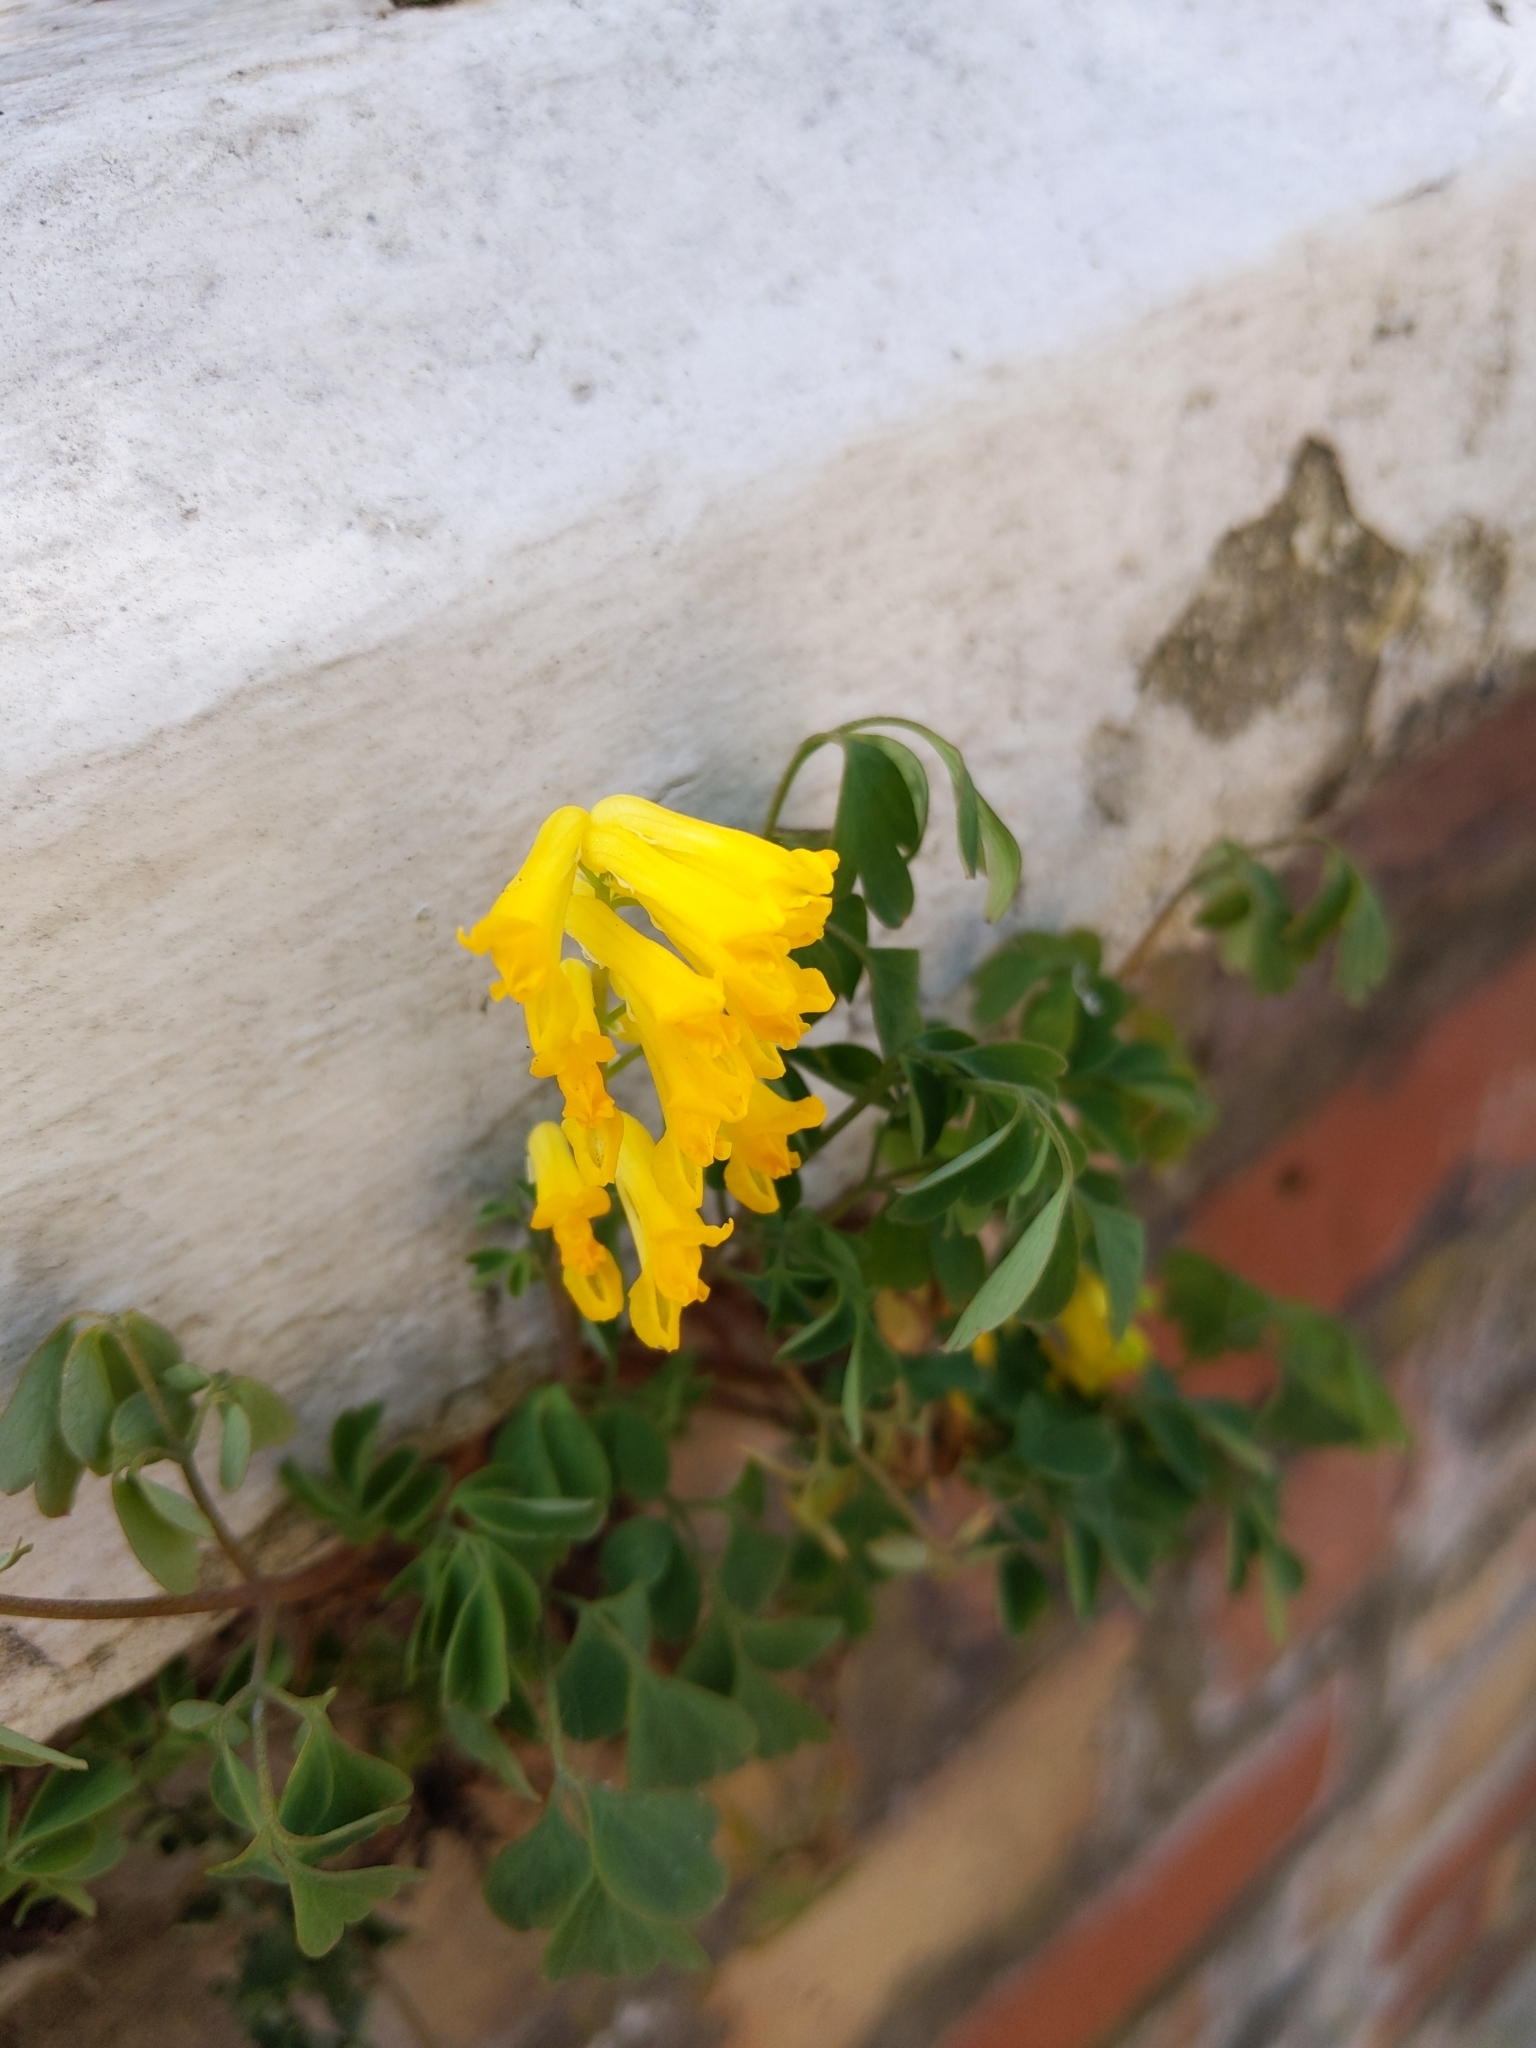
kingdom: Plantae
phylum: Tracheophyta
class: Magnoliopsida
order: Ranunculales
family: Papaveraceae
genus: Pseudofumaria
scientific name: Pseudofumaria lutea
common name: Yellow corydalis
